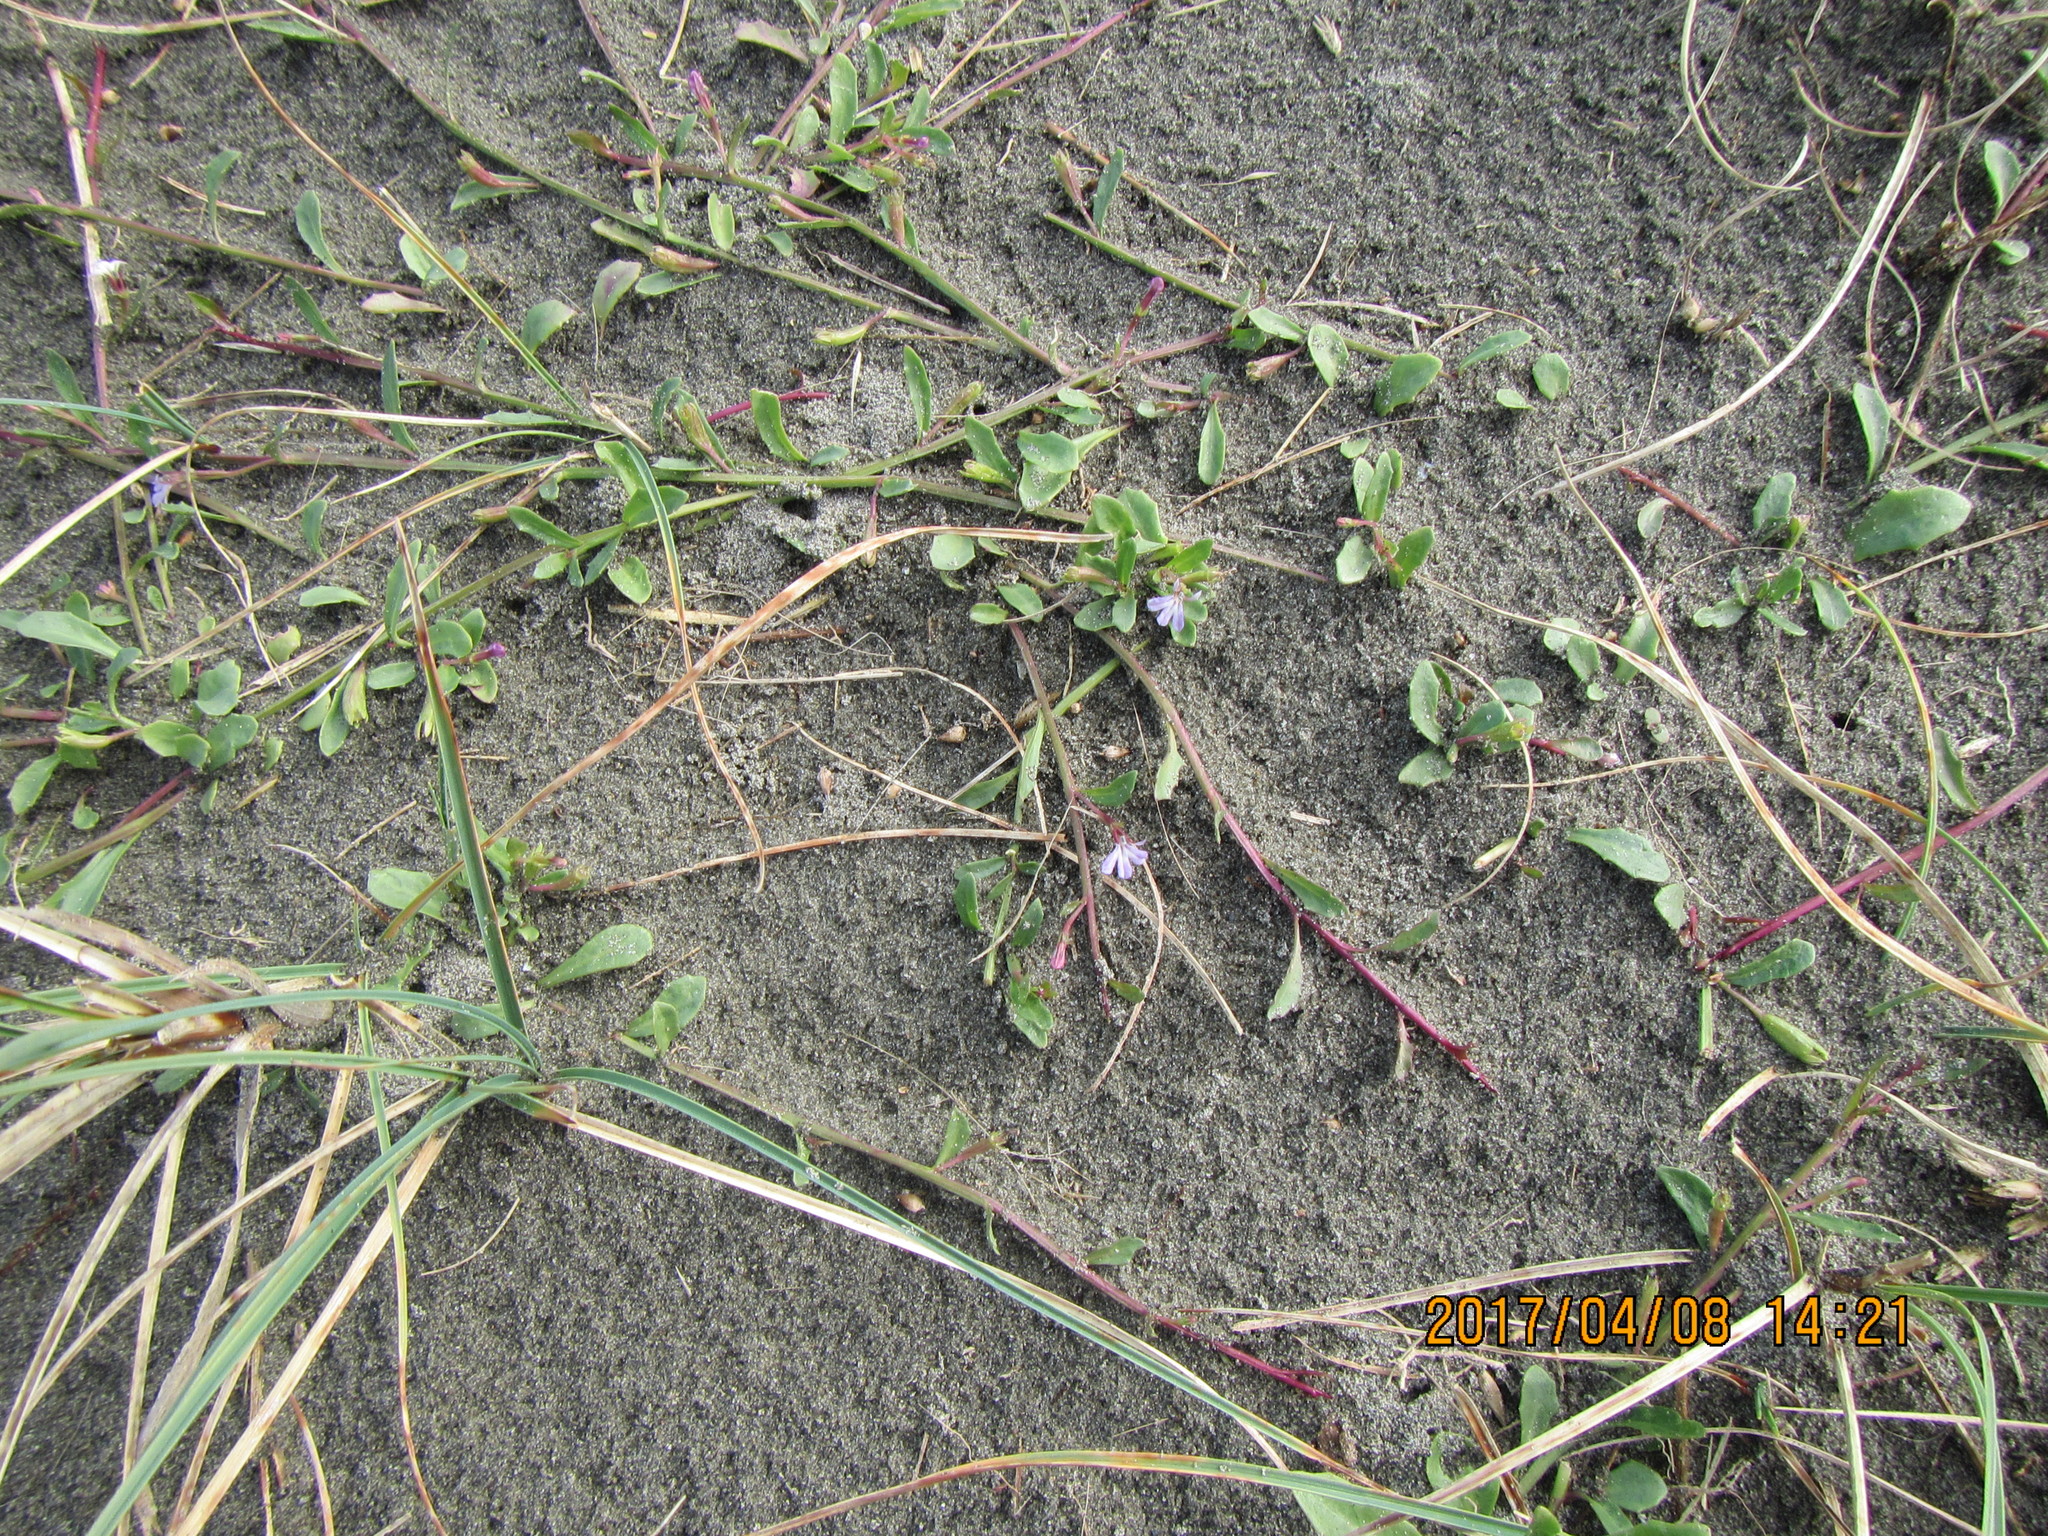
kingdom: Plantae
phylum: Tracheophyta
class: Magnoliopsida
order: Asterales
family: Campanulaceae
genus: Lobelia
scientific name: Lobelia anceps
